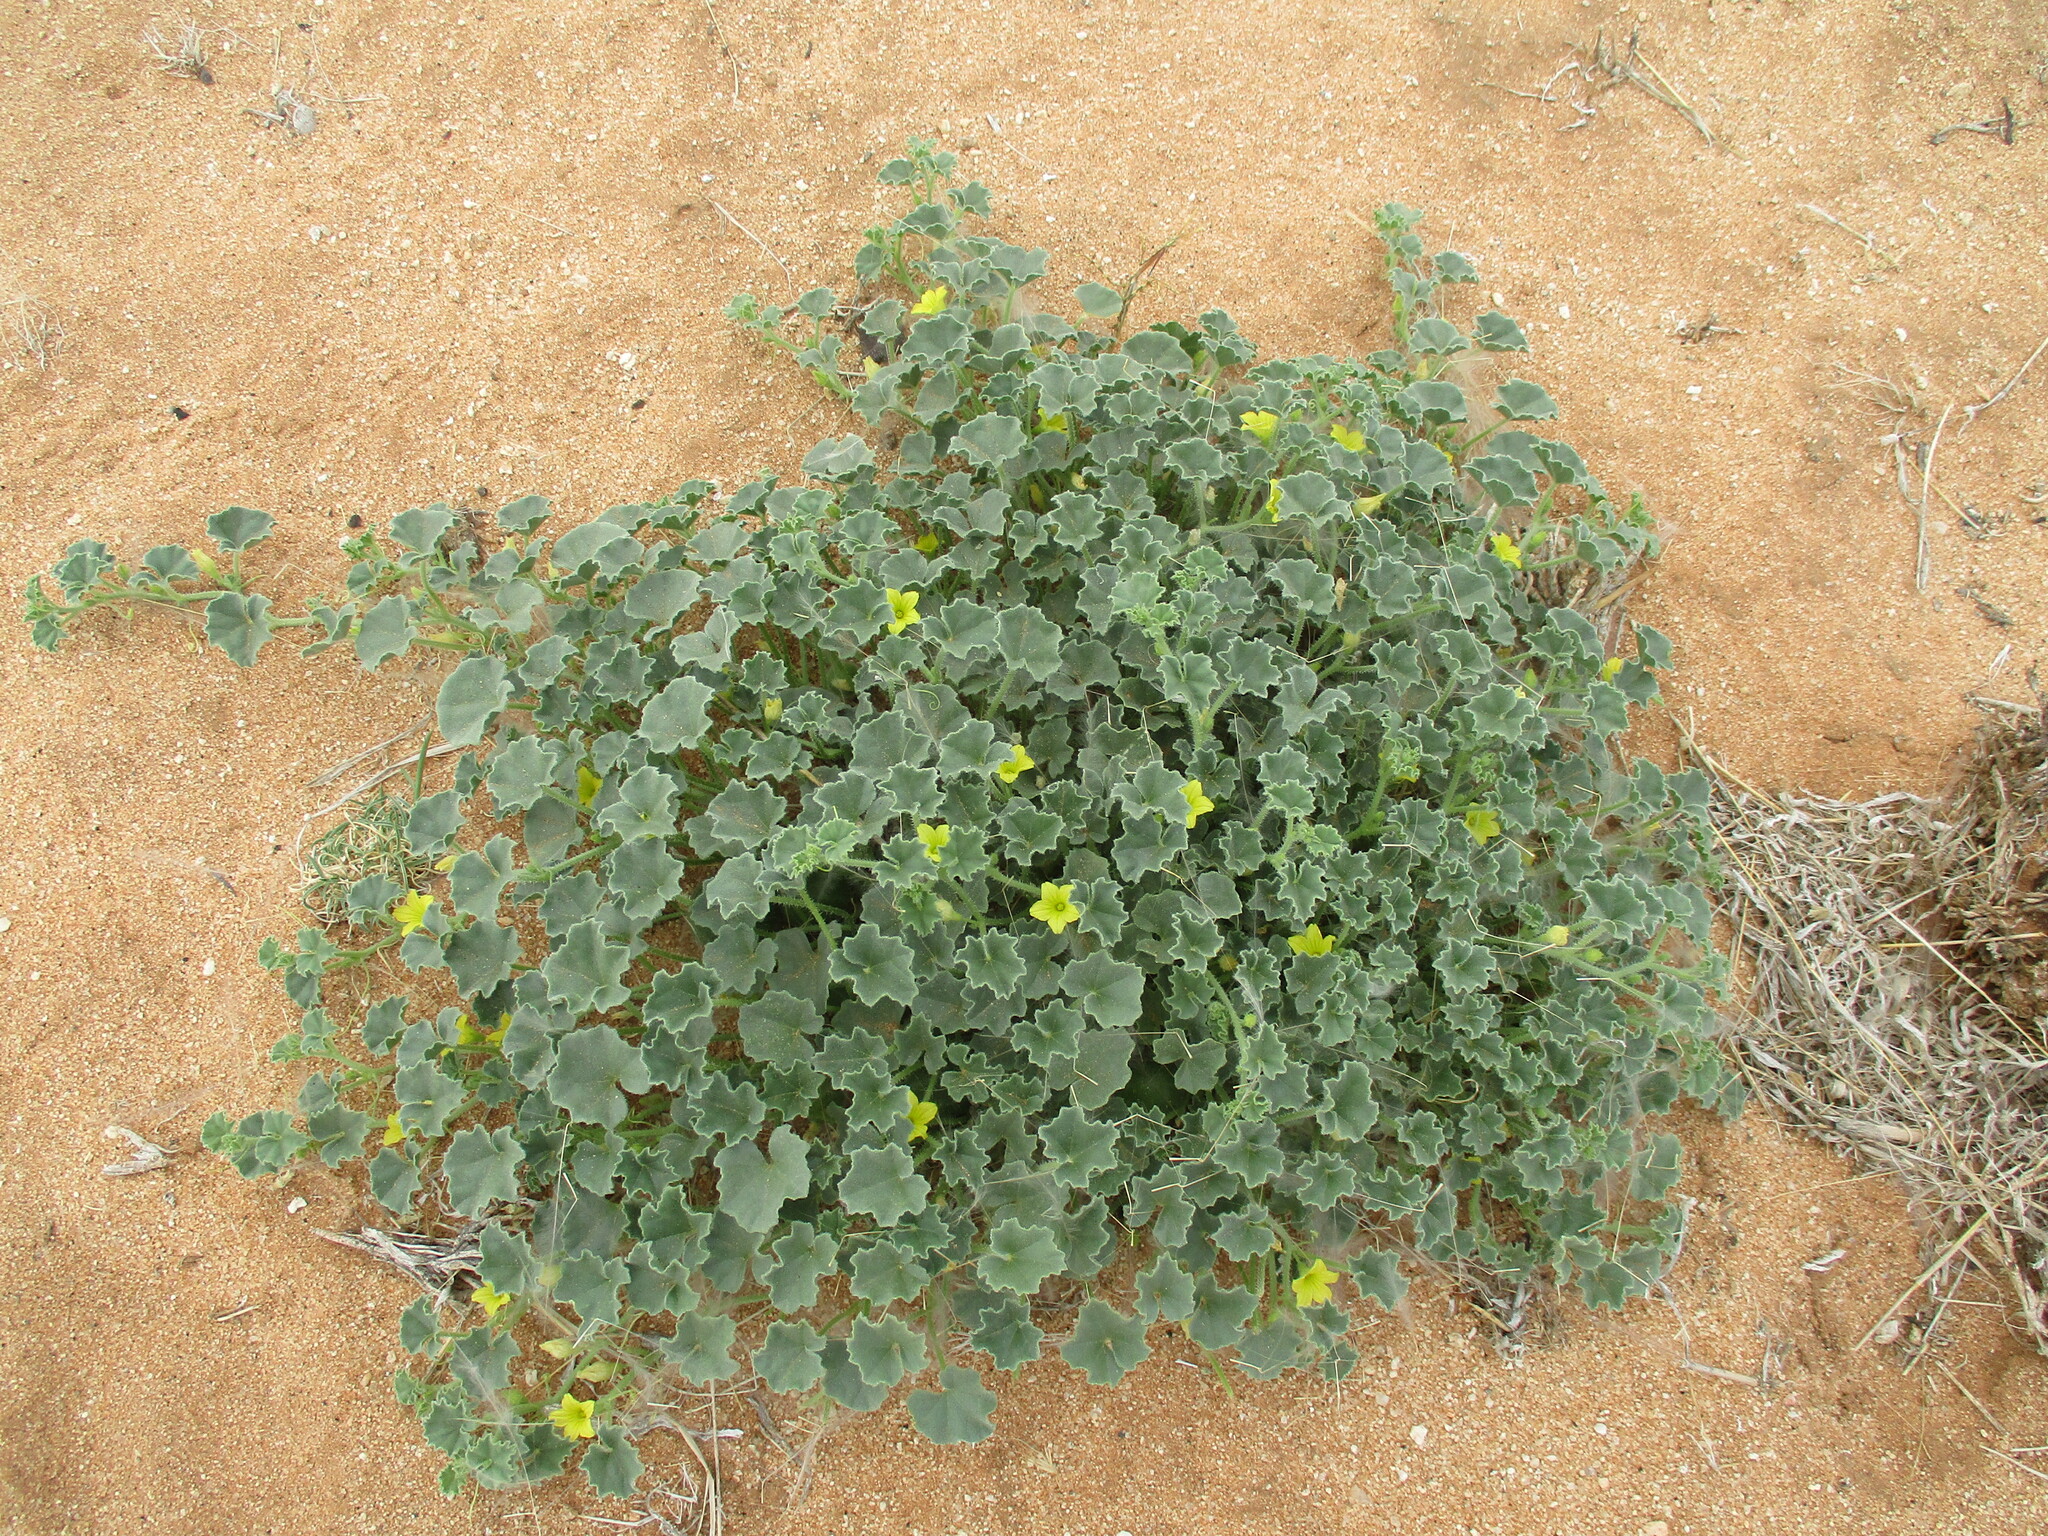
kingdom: Plantae
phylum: Tracheophyta
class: Magnoliopsida
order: Cucurbitales
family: Cucurbitaceae
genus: Cucumis
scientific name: Cucumis sagittatus
